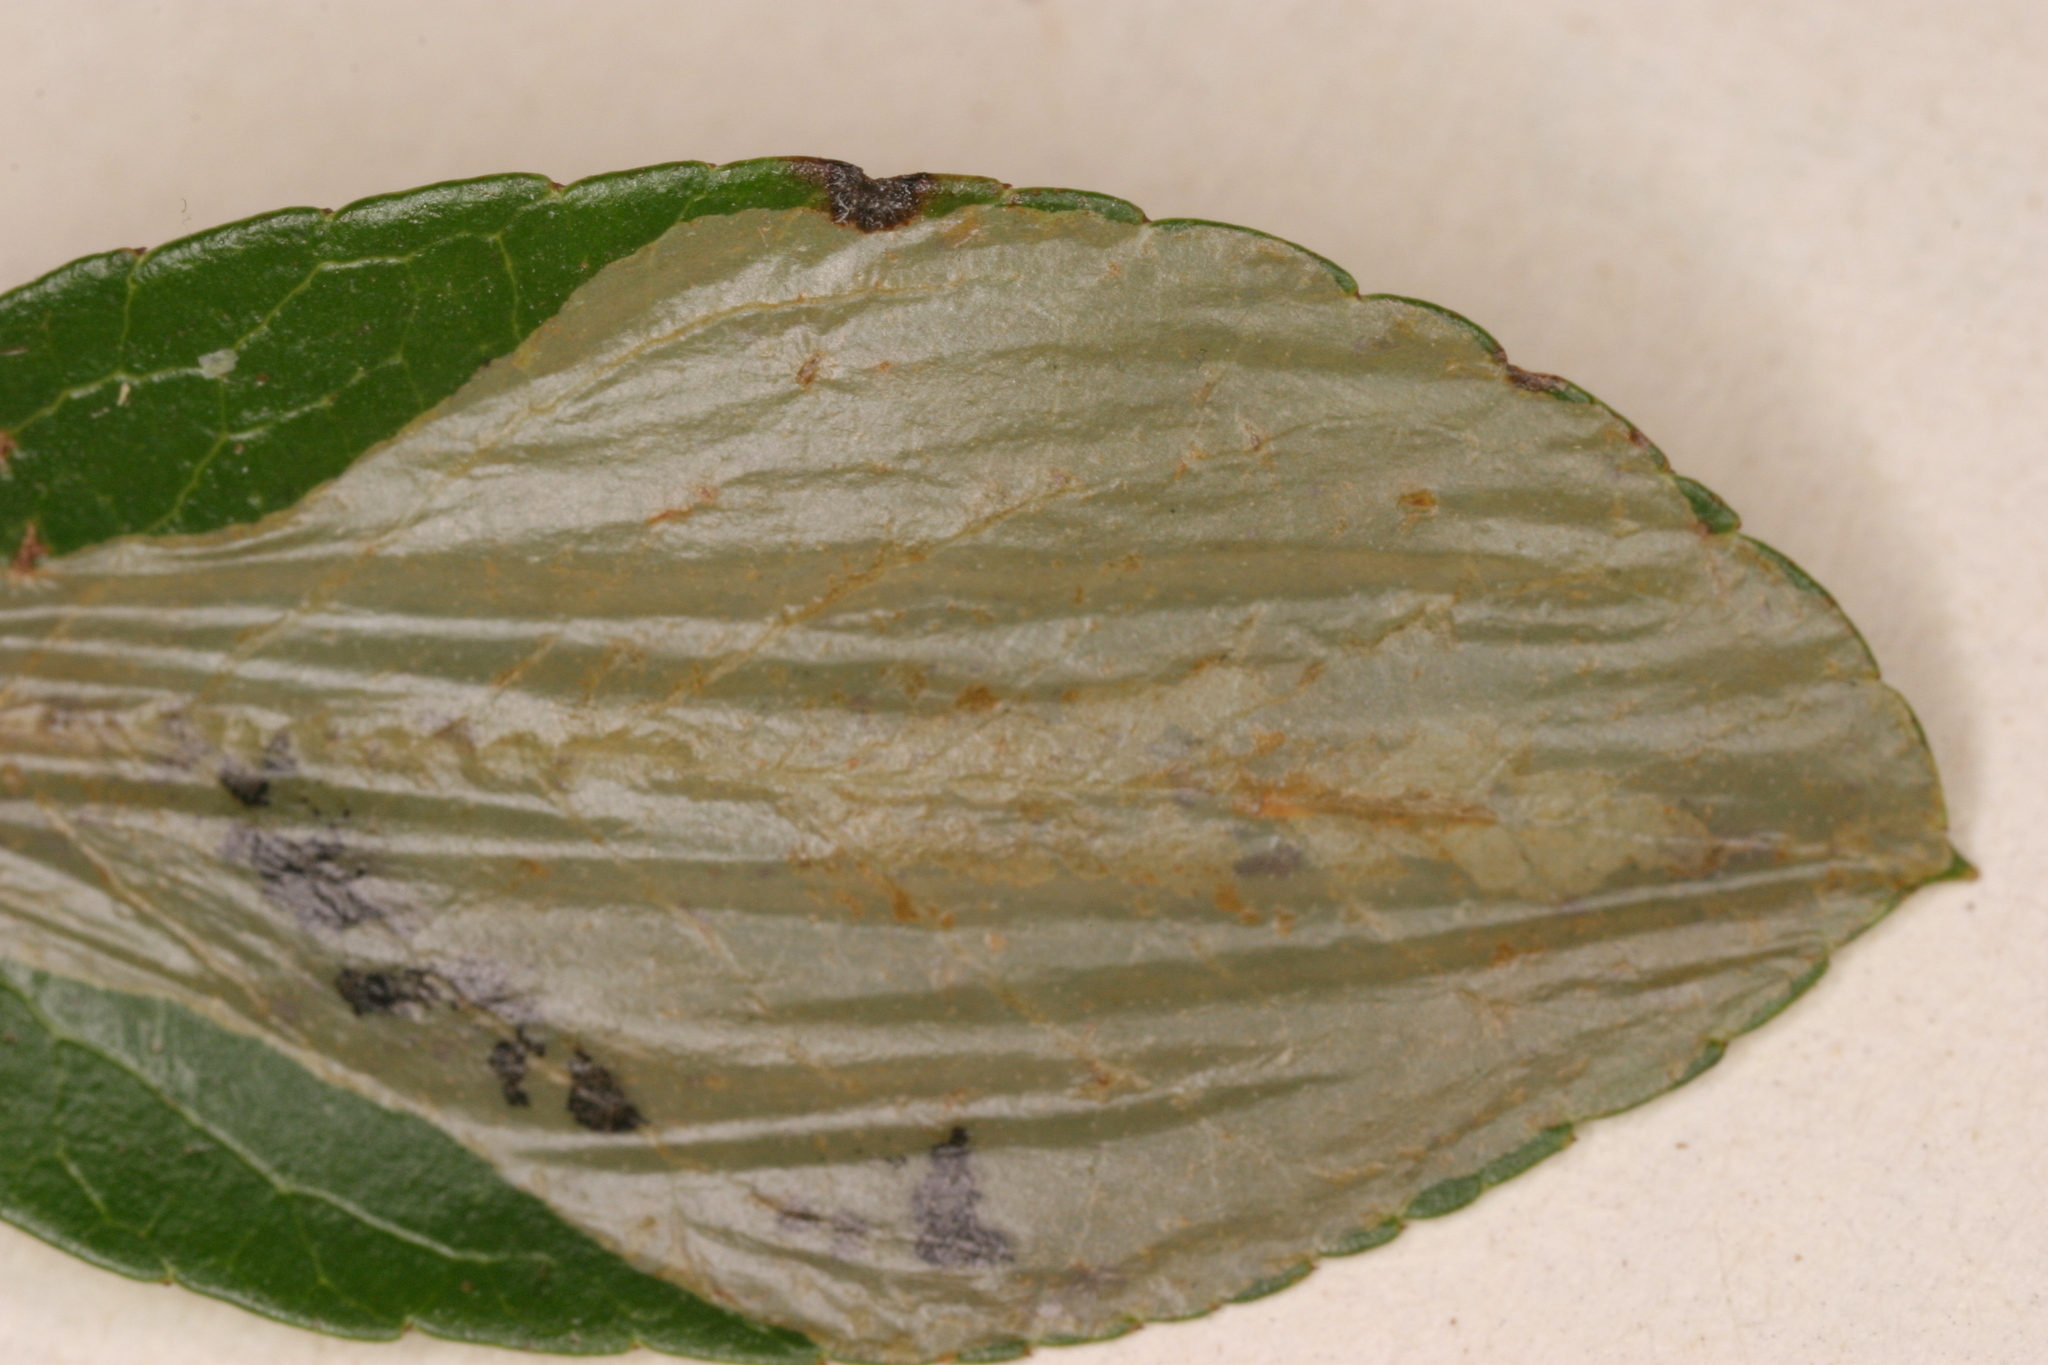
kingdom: Animalia
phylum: Arthropoda
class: Insecta
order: Lepidoptera
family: Gracillariidae
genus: Phyllonorycter
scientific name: Phyllonorycter leucographella
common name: Firethorn leaf-miner
